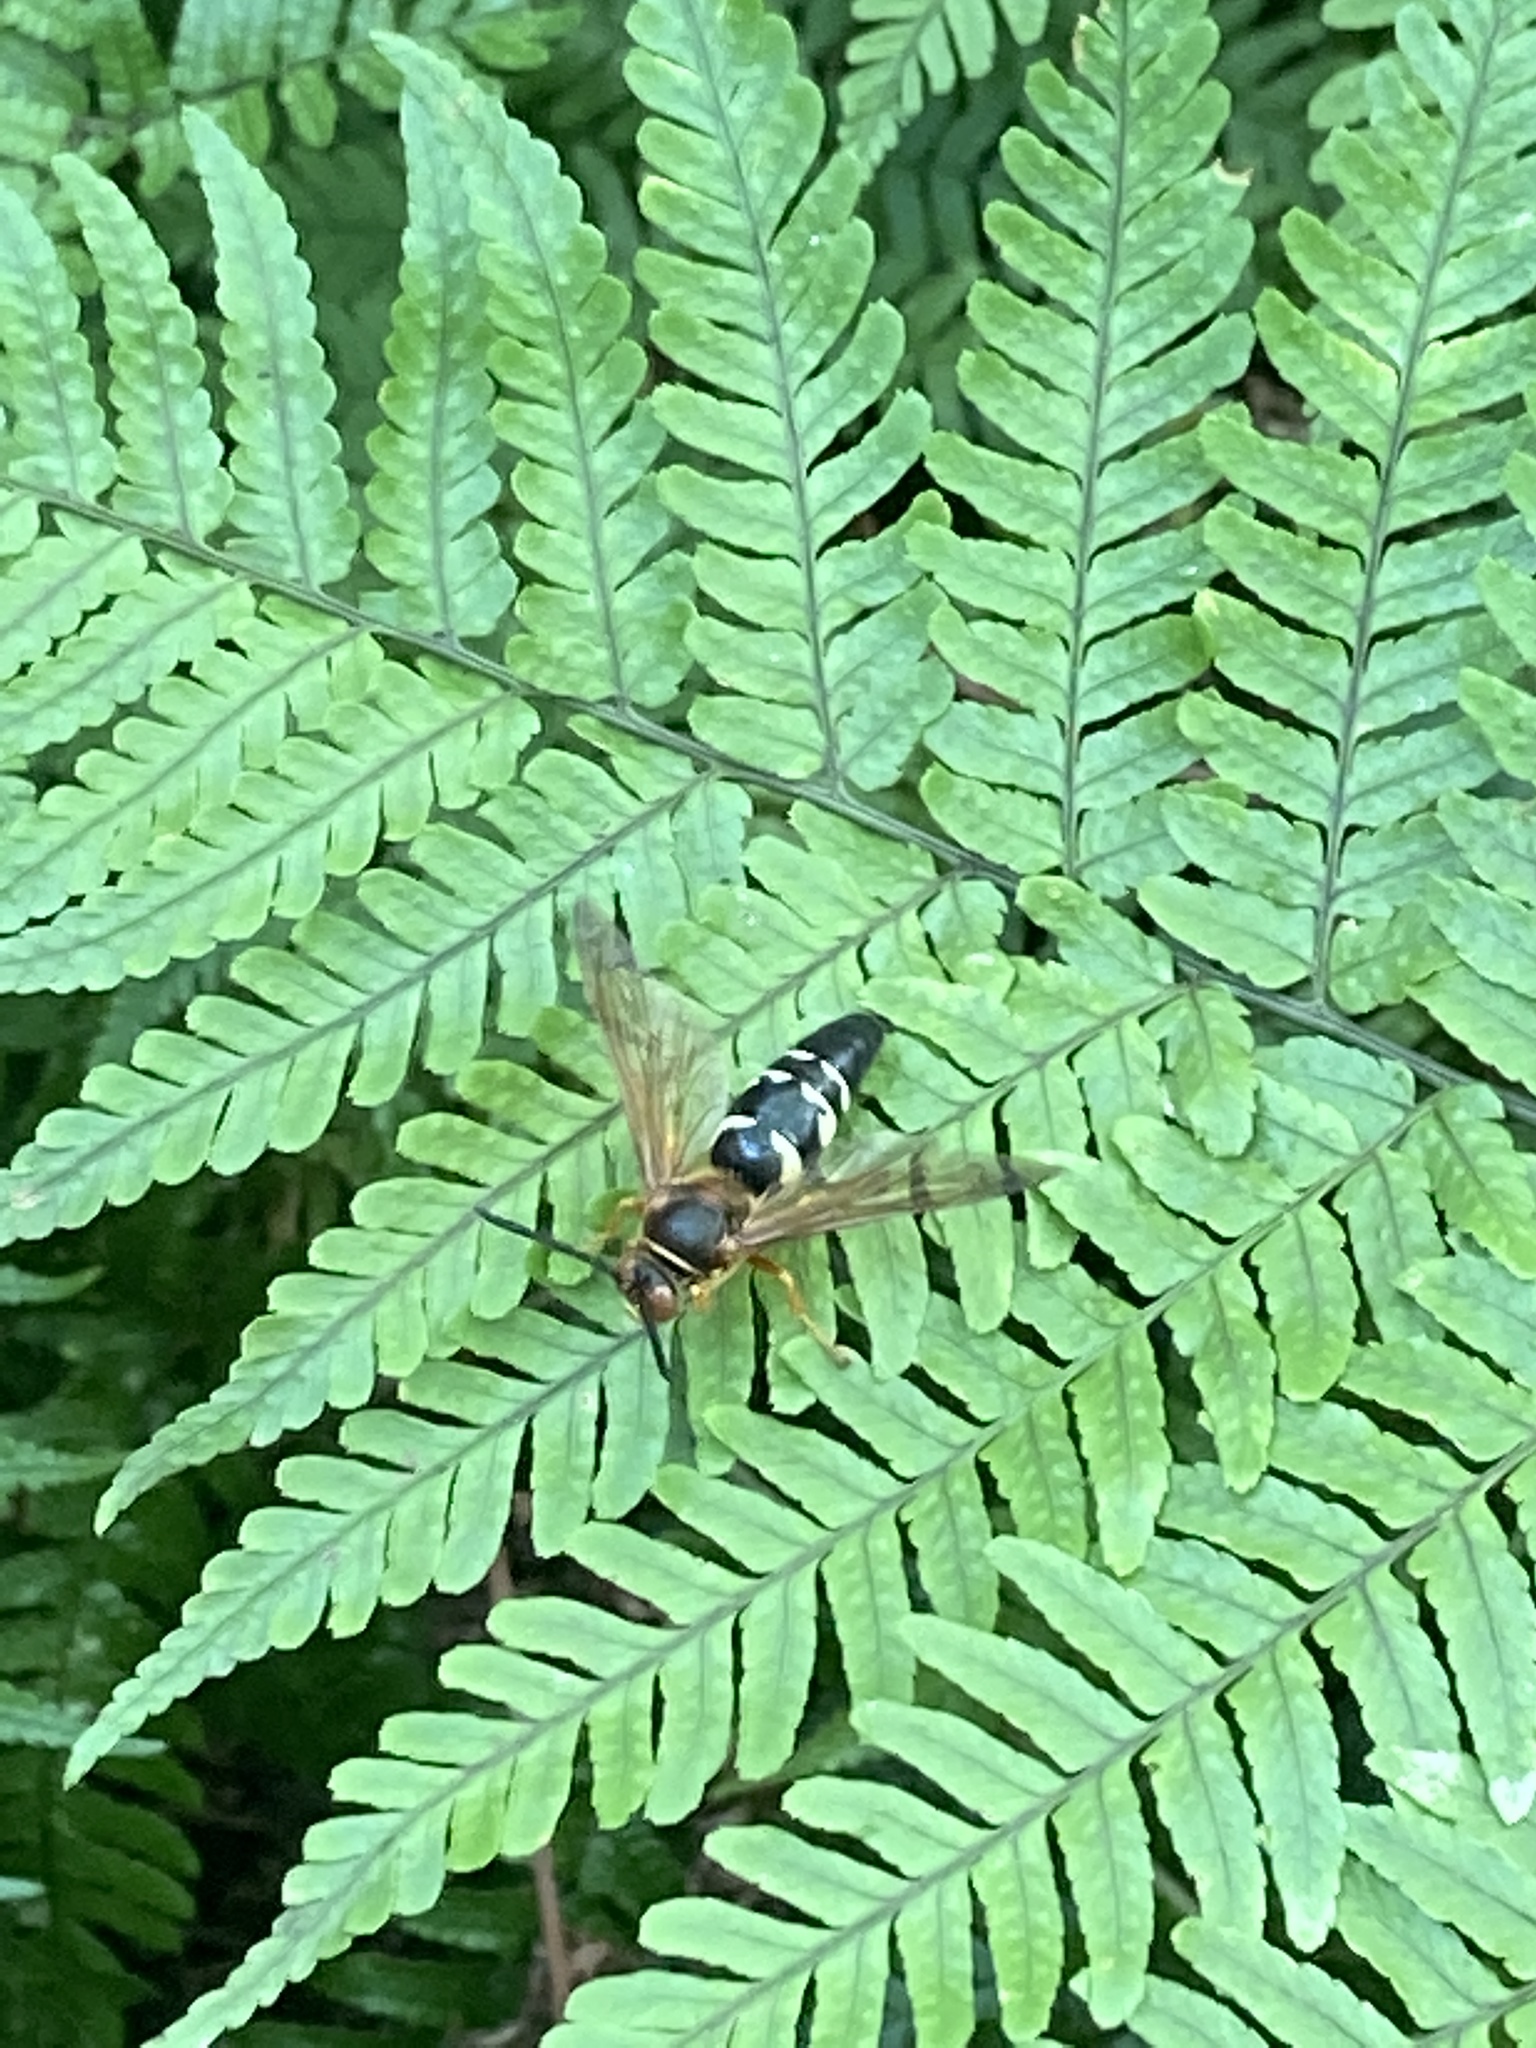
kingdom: Animalia
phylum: Arthropoda
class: Insecta
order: Hymenoptera
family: Crabronidae
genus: Sphecius
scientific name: Sphecius speciosus
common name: Cicada killer
